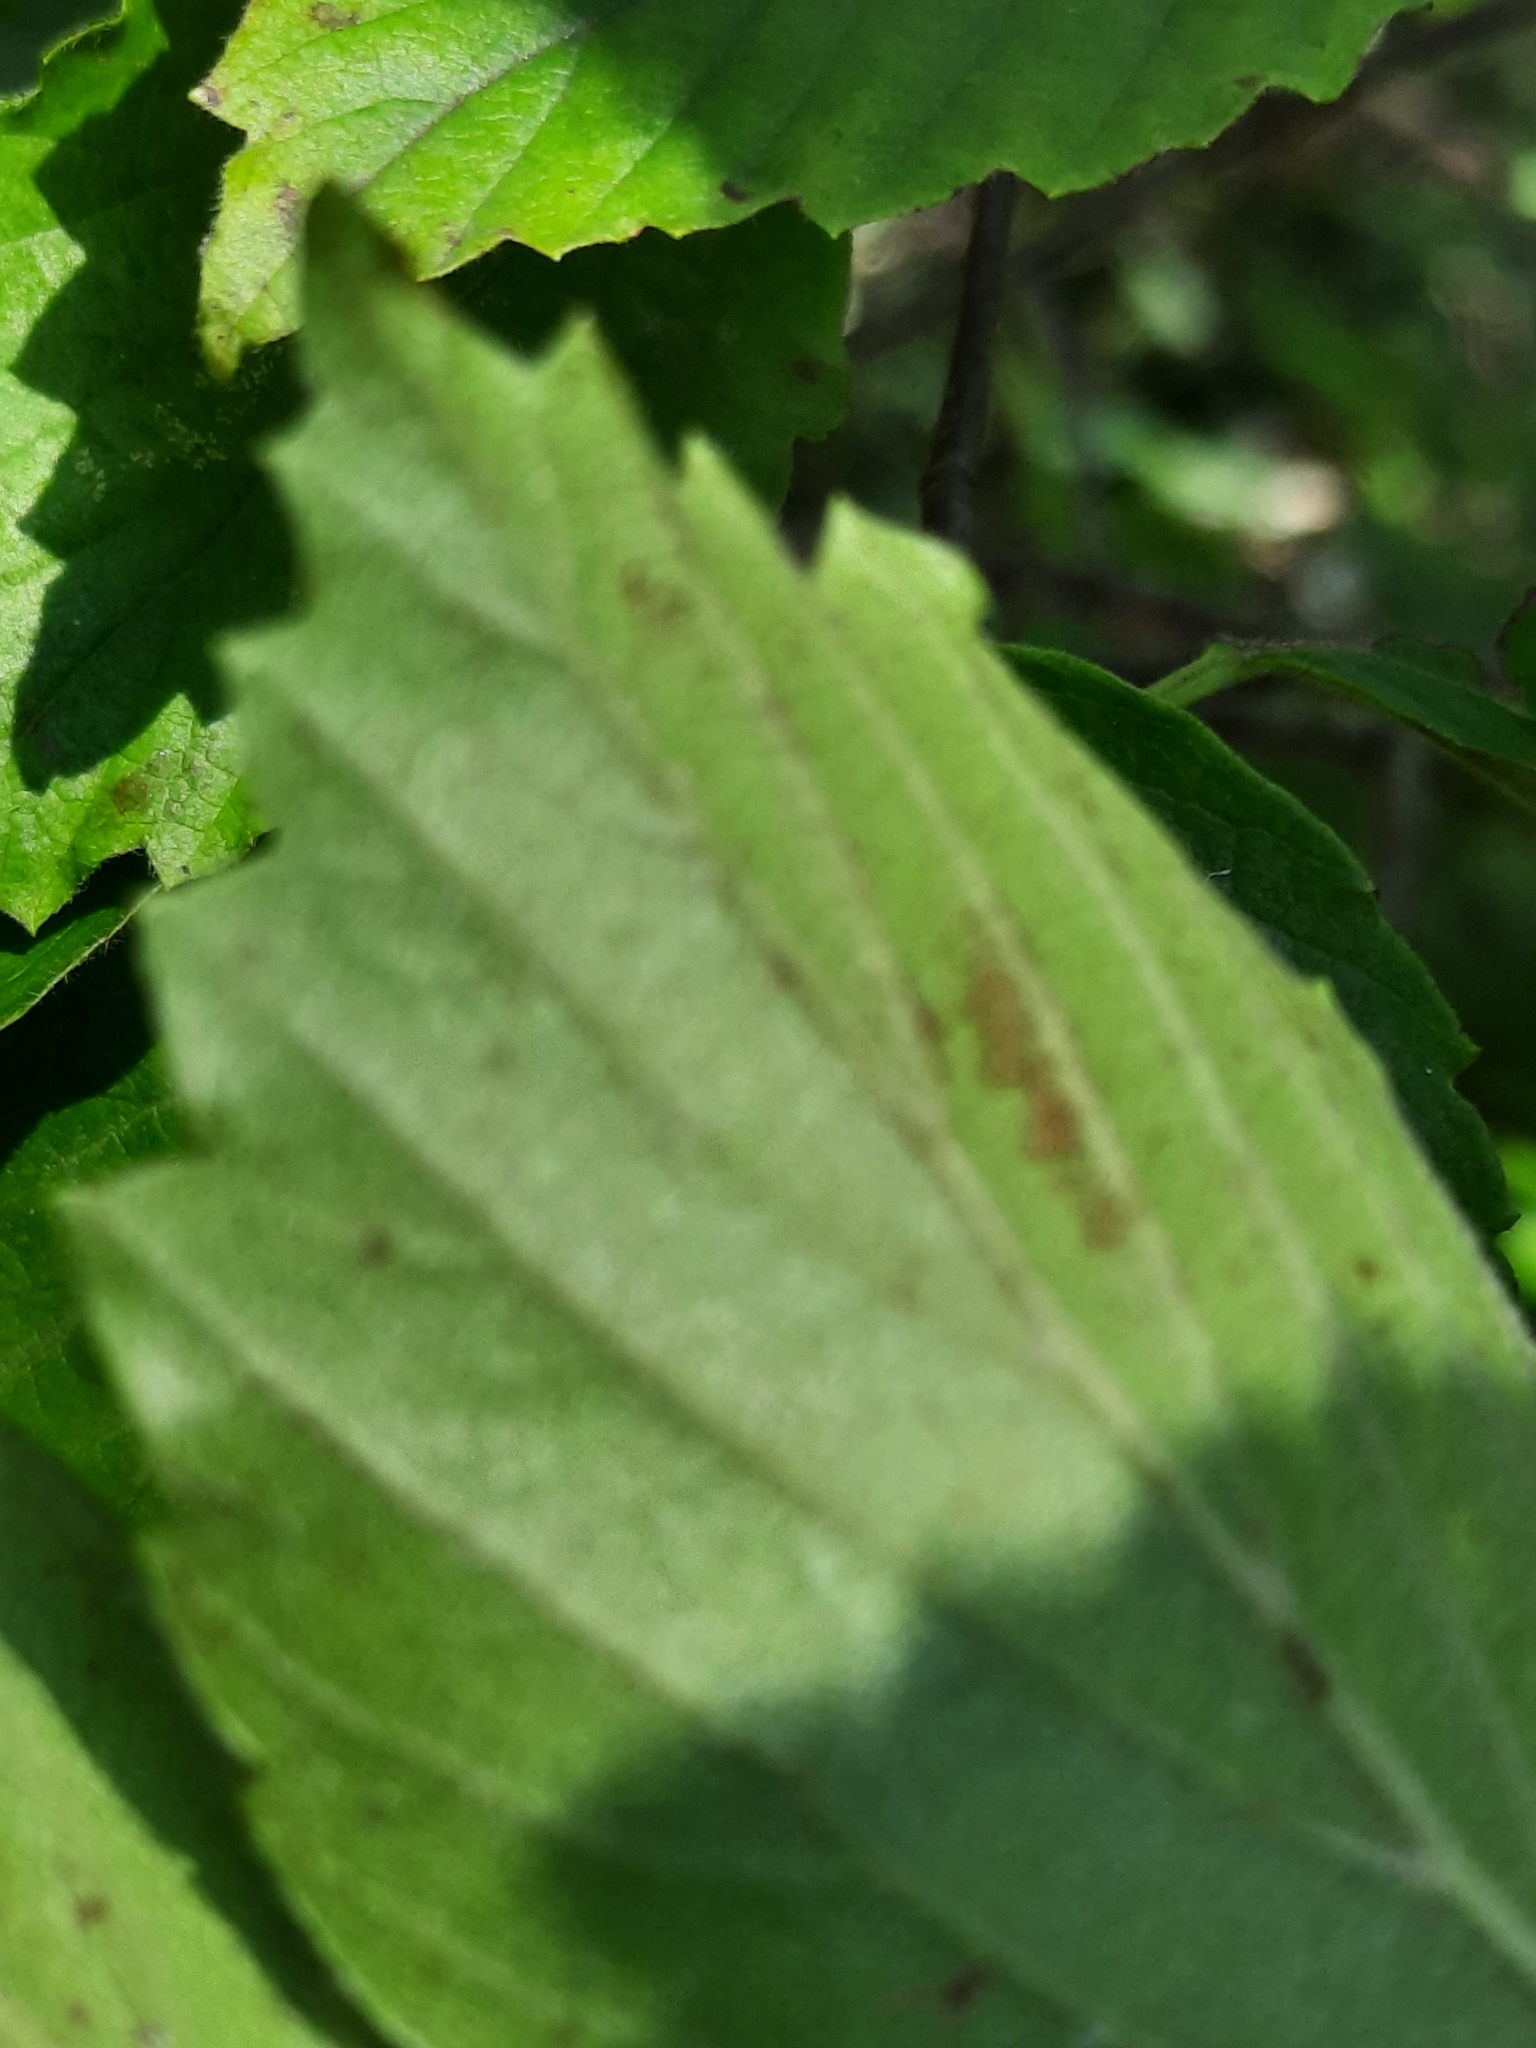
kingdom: Plantae
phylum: Tracheophyta
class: Magnoliopsida
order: Dipsacales
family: Viburnaceae
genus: Viburnum
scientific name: Viburnum rafinesqueanum
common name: Downy arrow-wood
